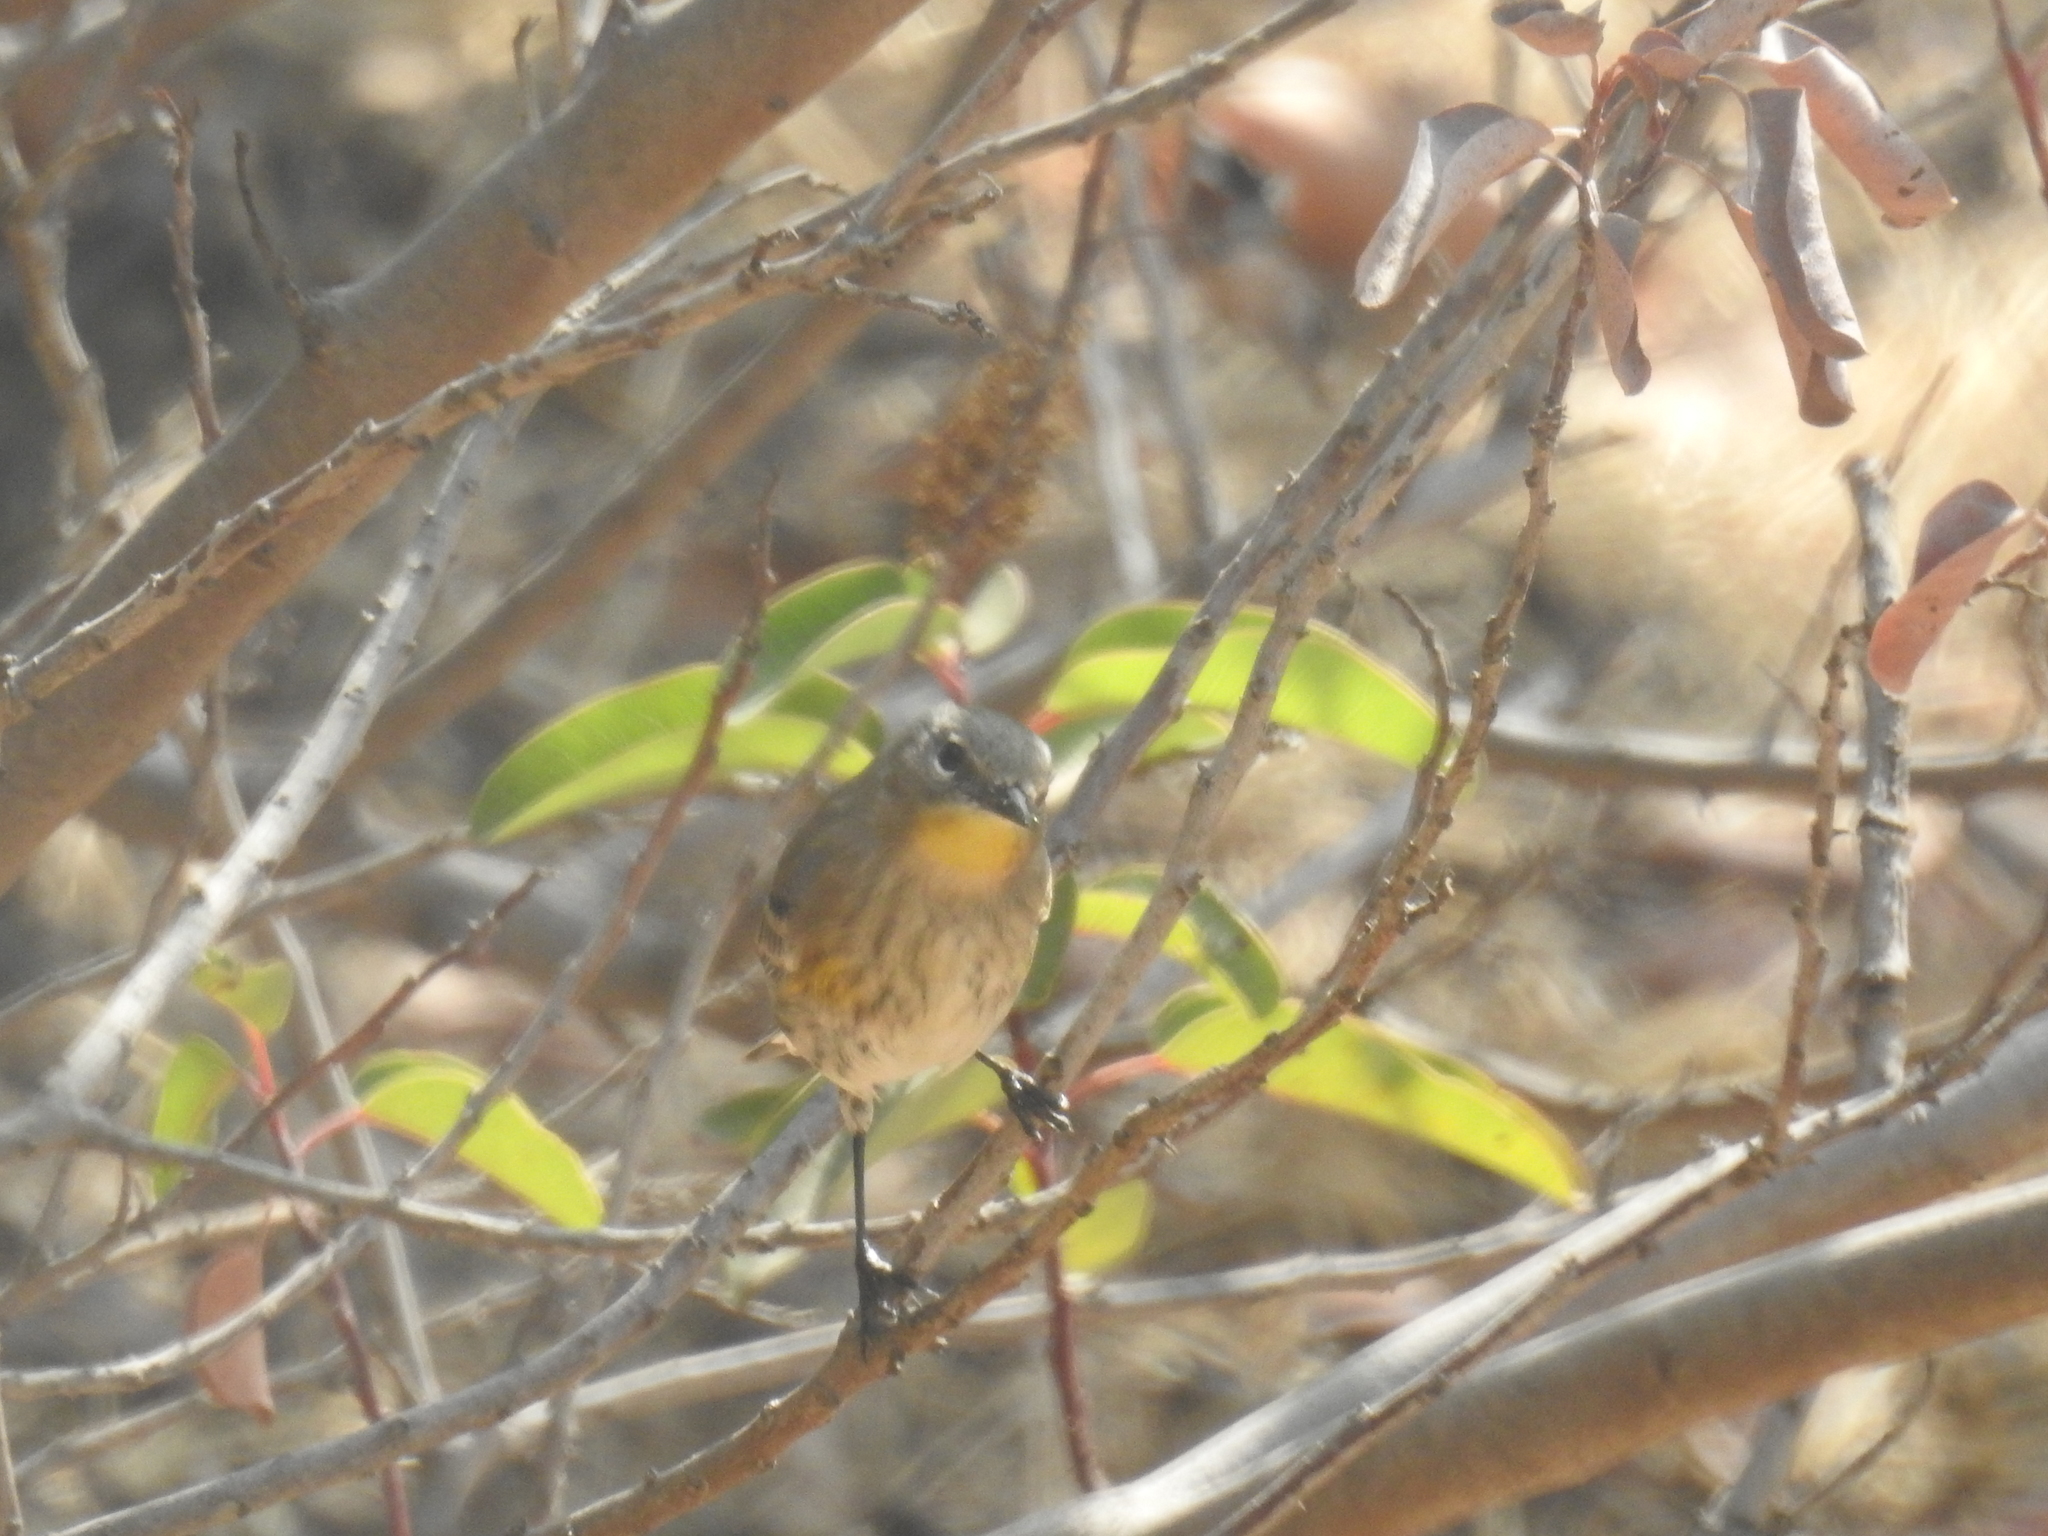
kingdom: Animalia
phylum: Chordata
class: Aves
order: Passeriformes
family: Parulidae
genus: Setophaga
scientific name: Setophaga coronata
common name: Myrtle warbler
